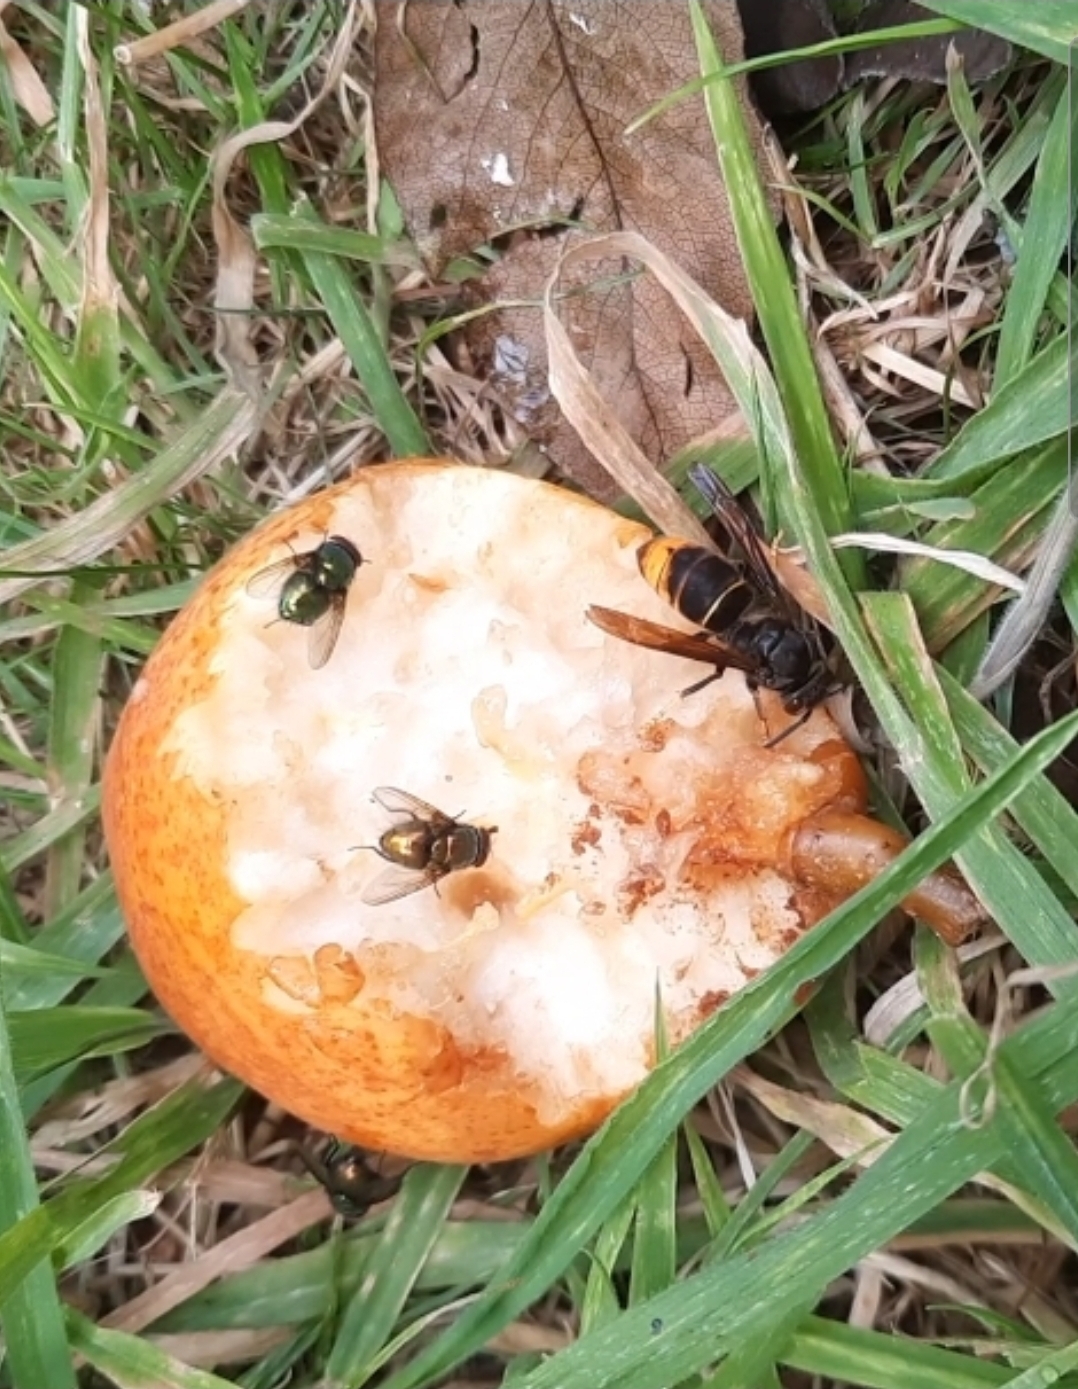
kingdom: Animalia
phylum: Arthropoda
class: Insecta
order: Hymenoptera
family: Vespidae
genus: Vespa
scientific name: Vespa velutina
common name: Asian hornet
